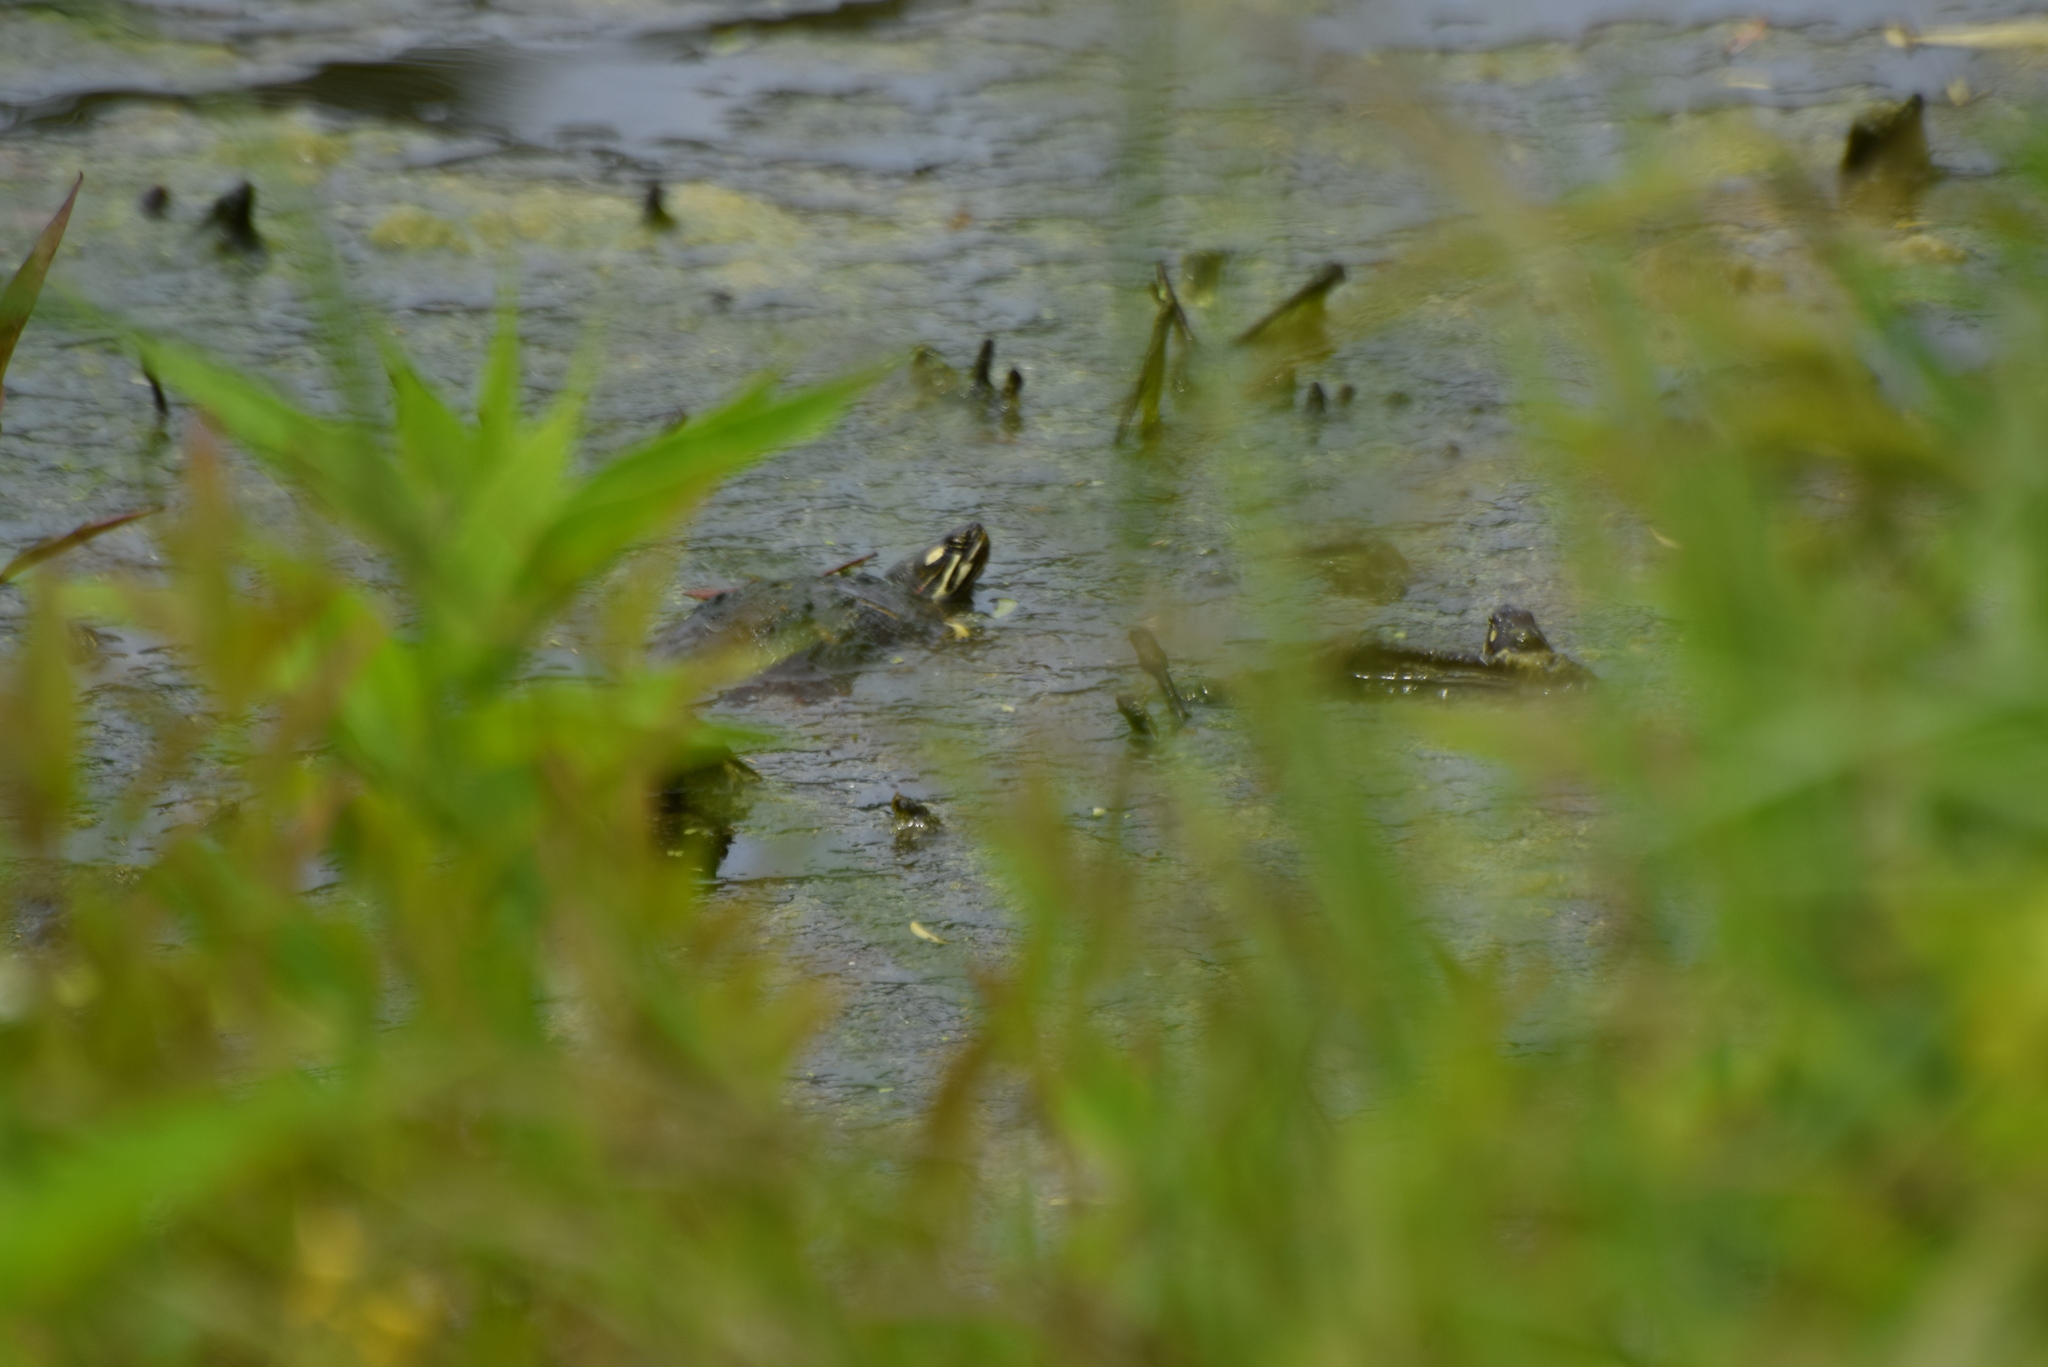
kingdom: Animalia
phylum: Chordata
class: Testudines
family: Emydidae
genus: Chrysemys
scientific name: Chrysemys picta
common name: Painted turtle
